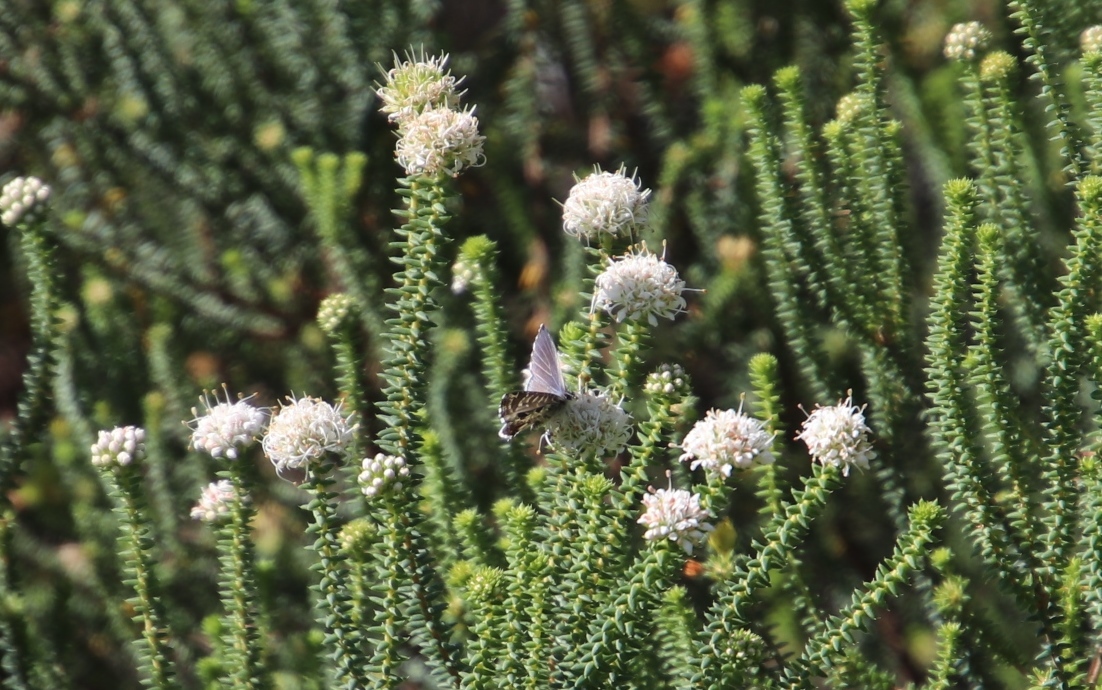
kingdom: Animalia
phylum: Arthropoda
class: Insecta
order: Lepidoptera
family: Lycaenidae
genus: Cacyreus
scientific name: Cacyreus lingeus
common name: Bush bronze
